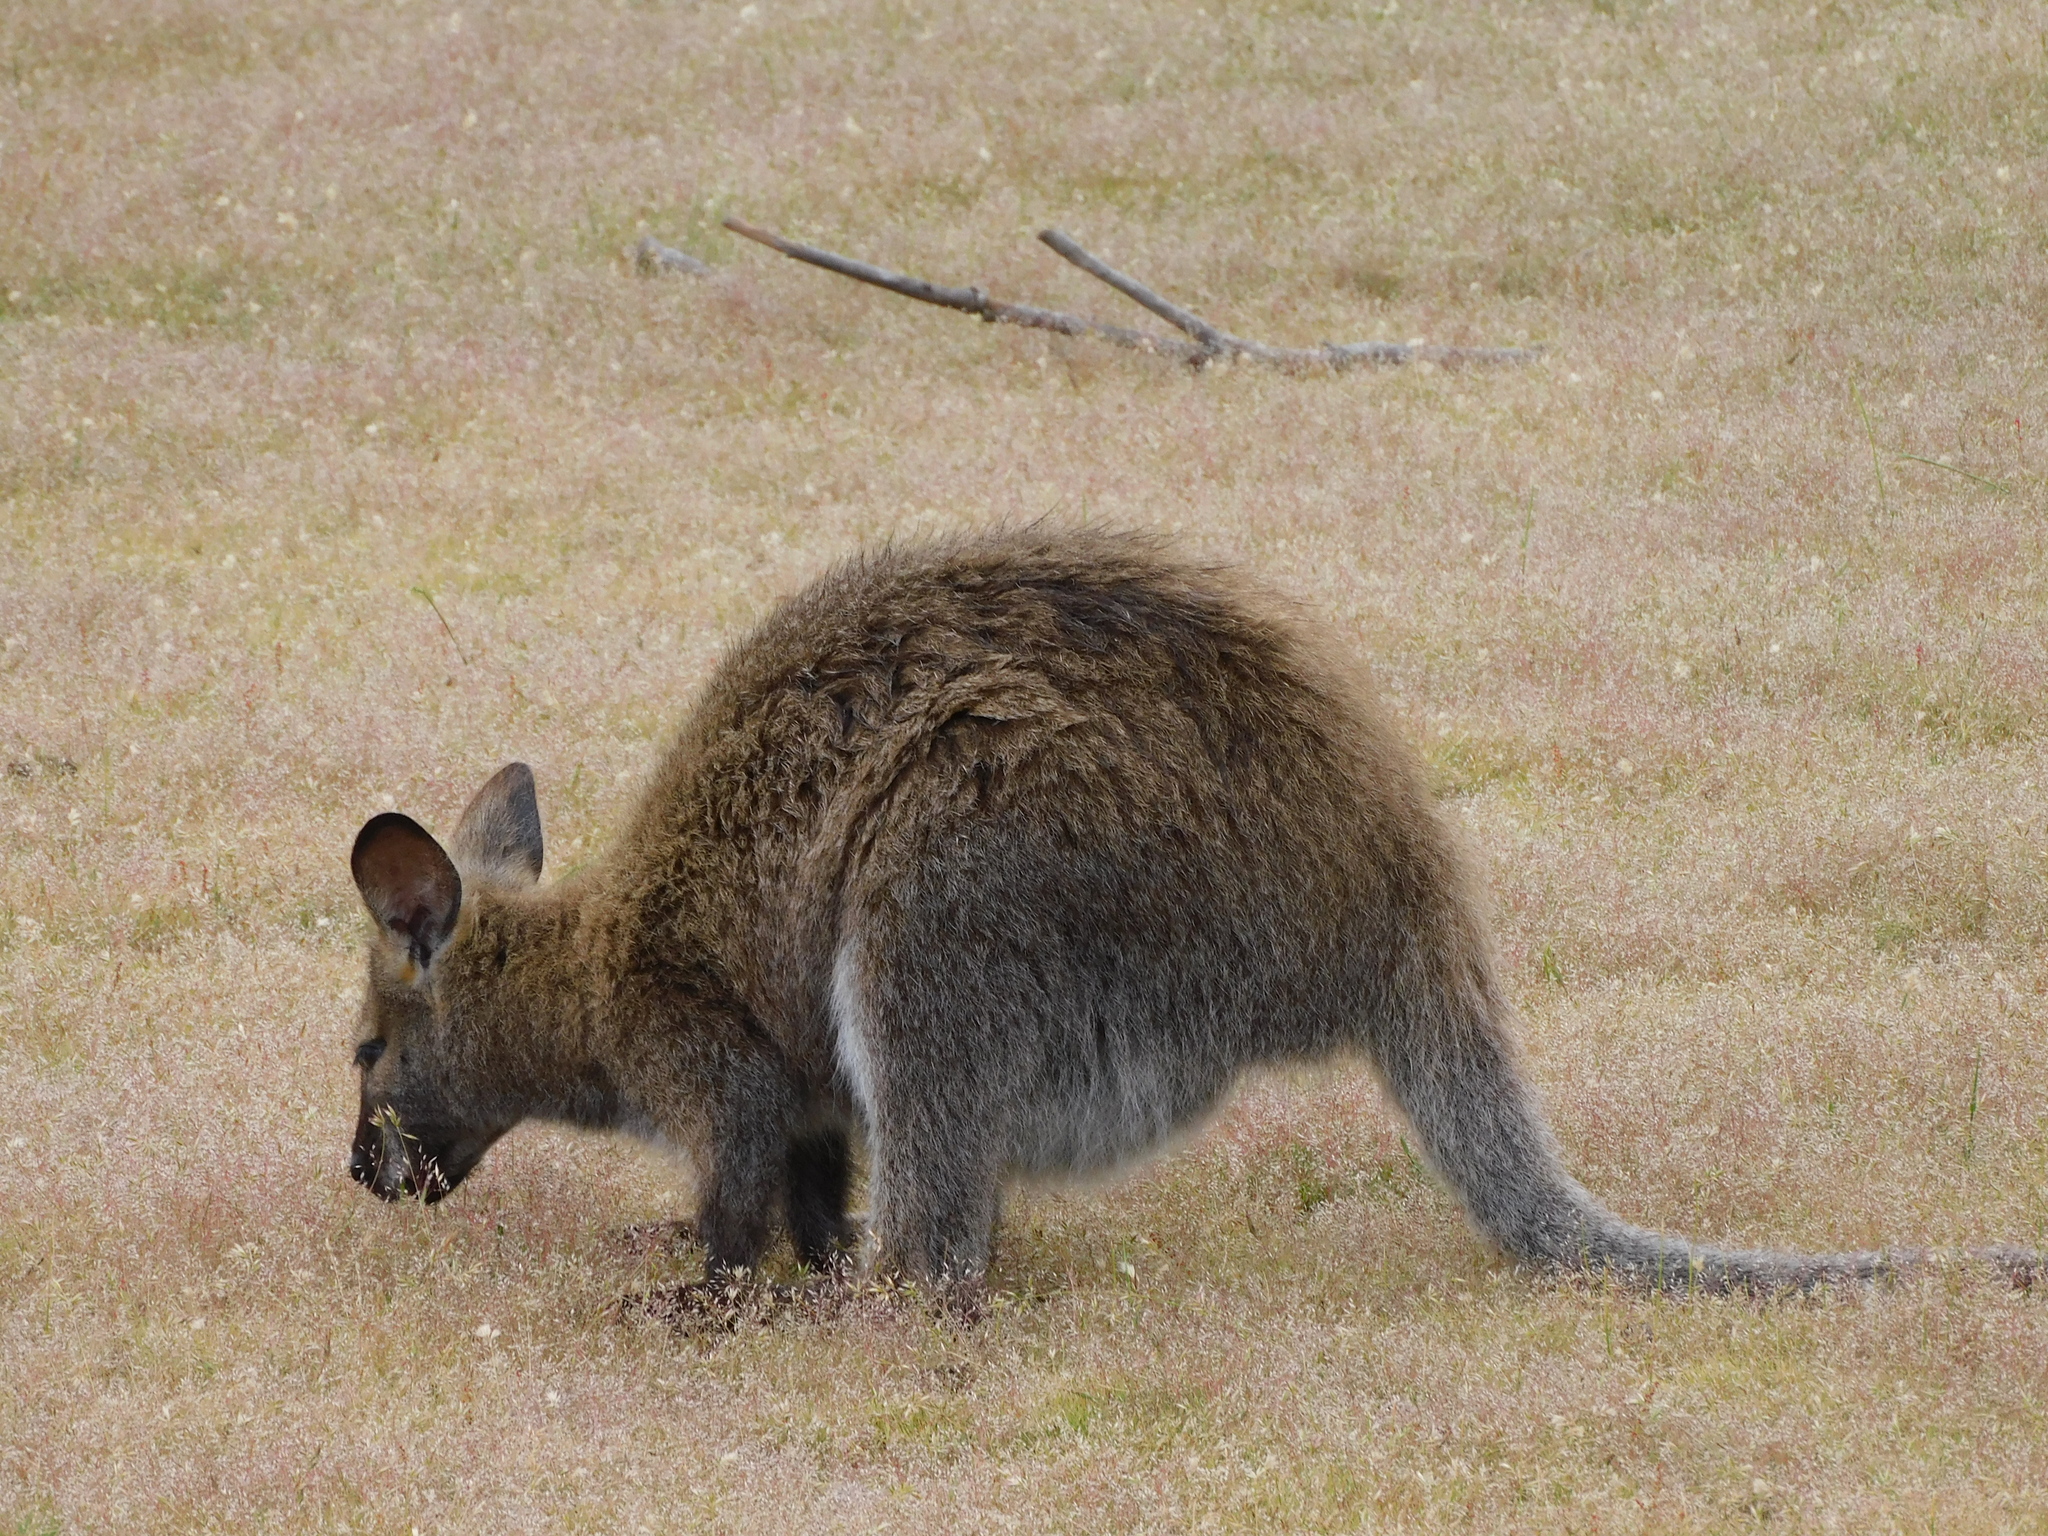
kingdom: Animalia
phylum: Chordata
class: Mammalia
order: Diprotodontia
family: Macropodidae
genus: Notamacropus
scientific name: Notamacropus rufogriseus
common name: Red-necked wallaby
